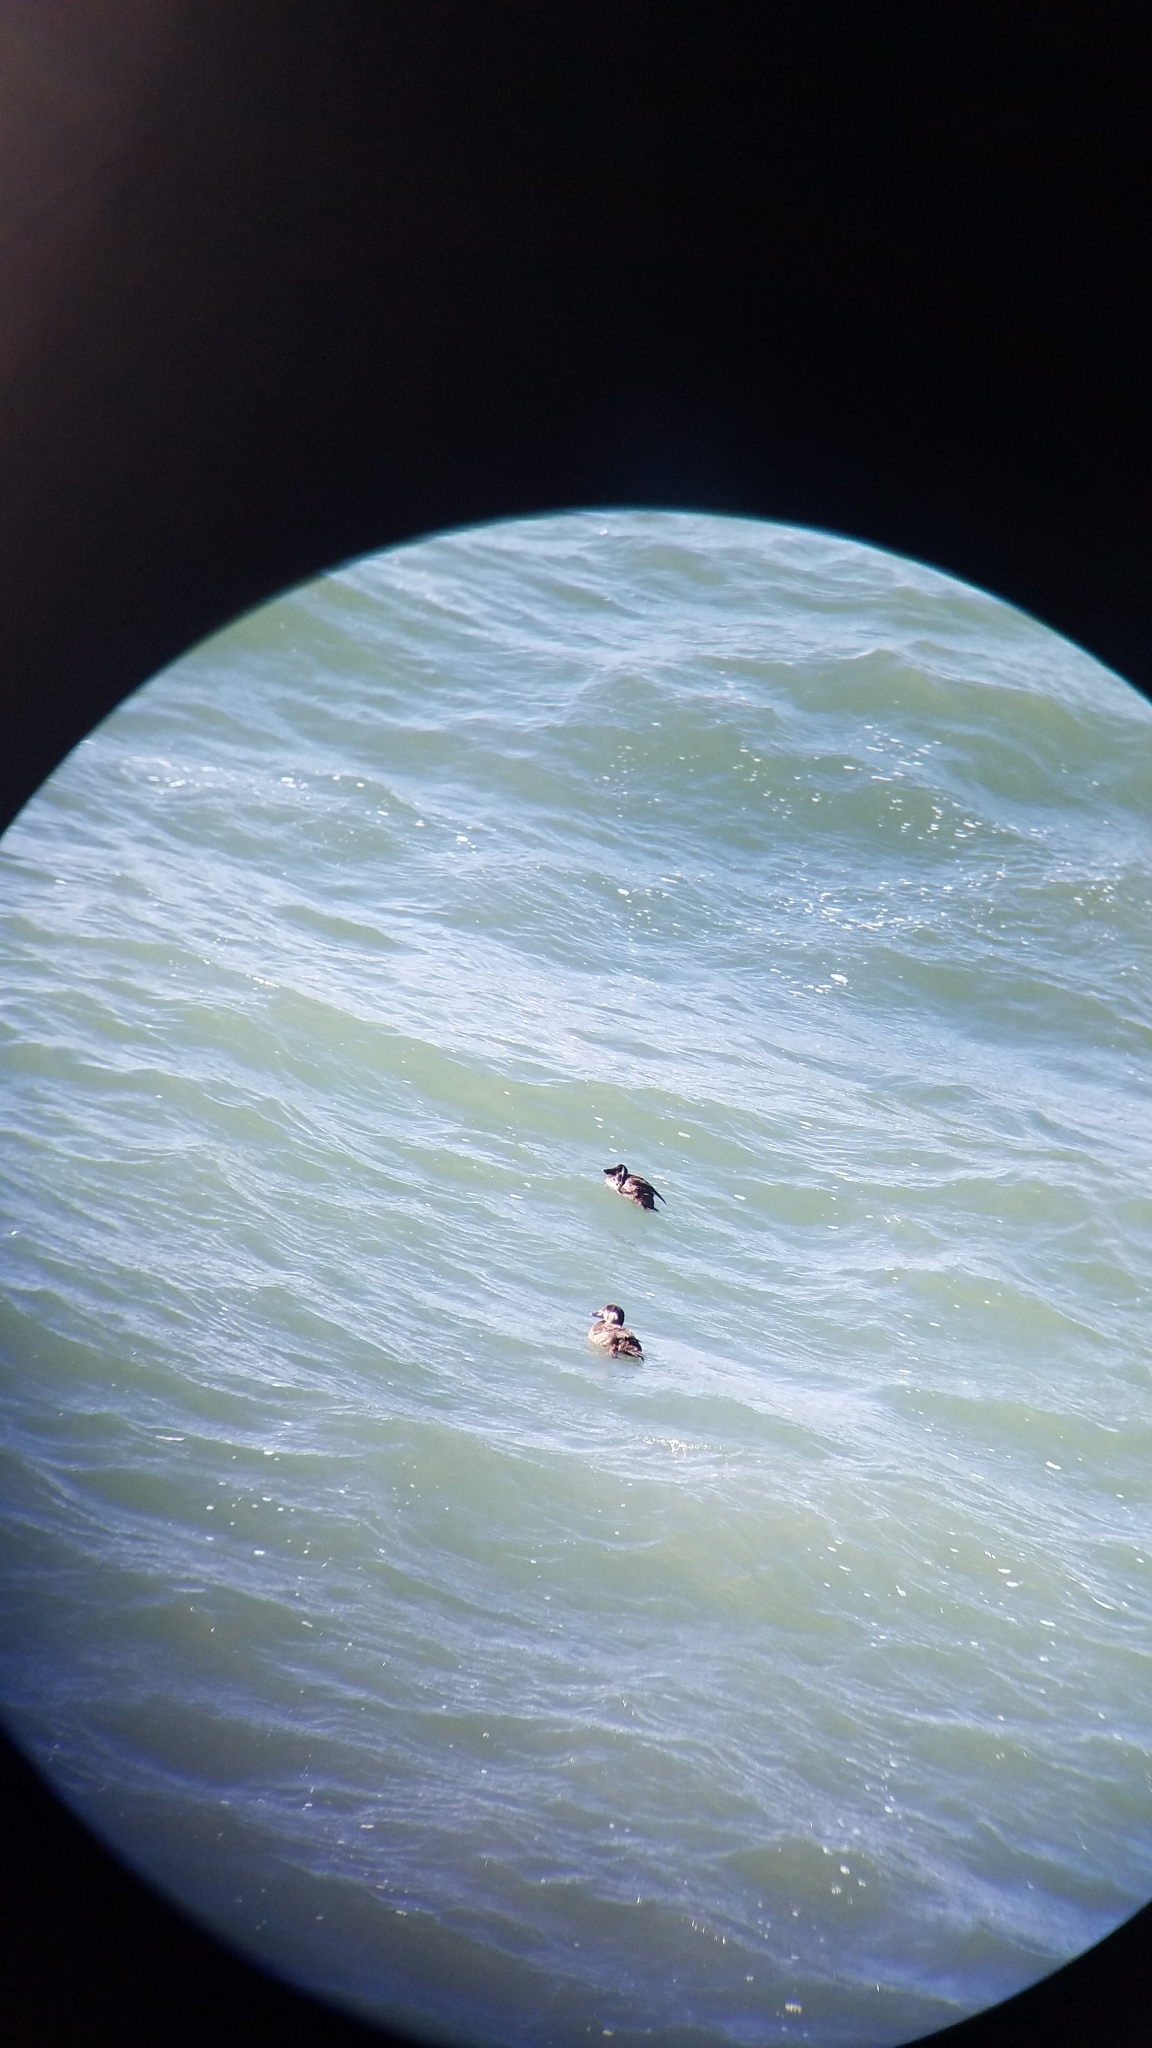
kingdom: Animalia
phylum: Chordata
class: Aves
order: Anseriformes
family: Anatidae
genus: Melanitta
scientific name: Melanitta perspicillata
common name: Surf scoter
